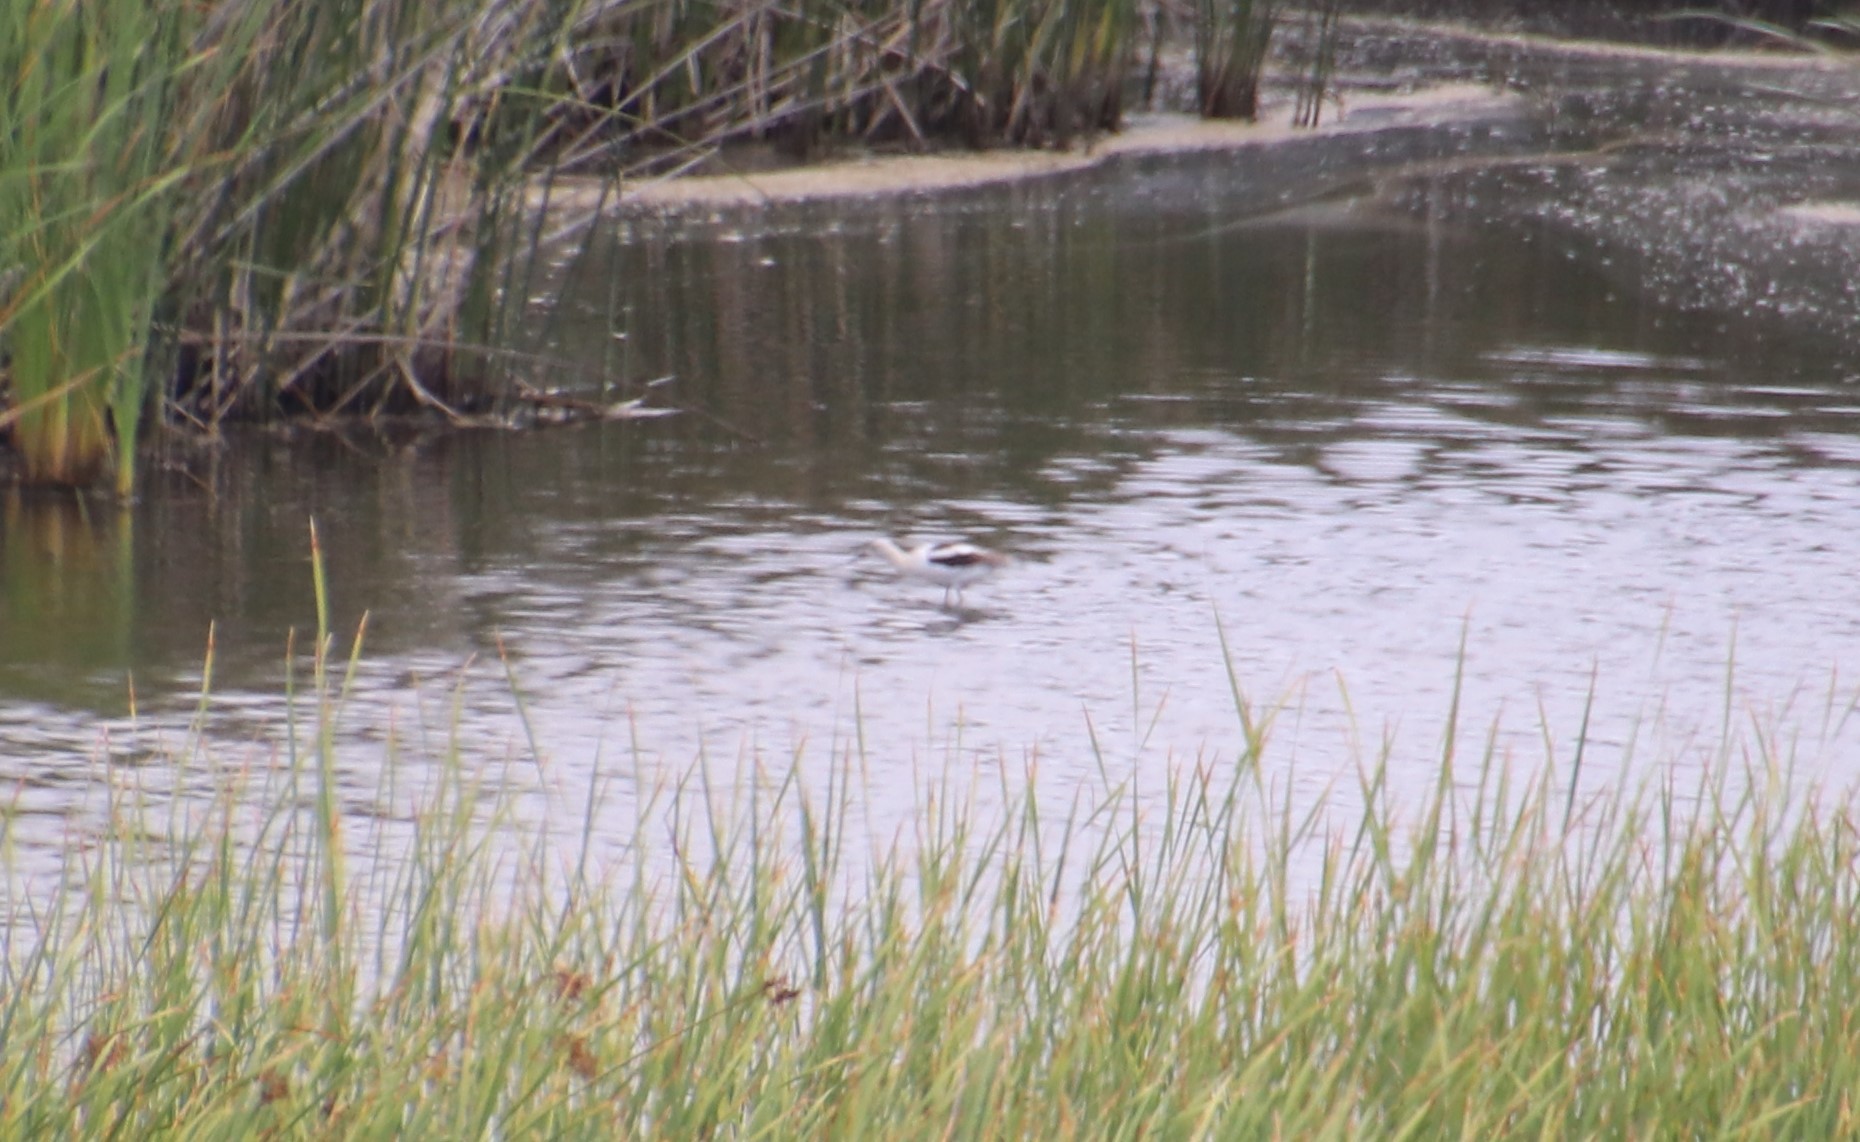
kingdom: Animalia
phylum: Chordata
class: Aves
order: Charadriiformes
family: Recurvirostridae
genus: Recurvirostra
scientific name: Recurvirostra americana
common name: American avocet
